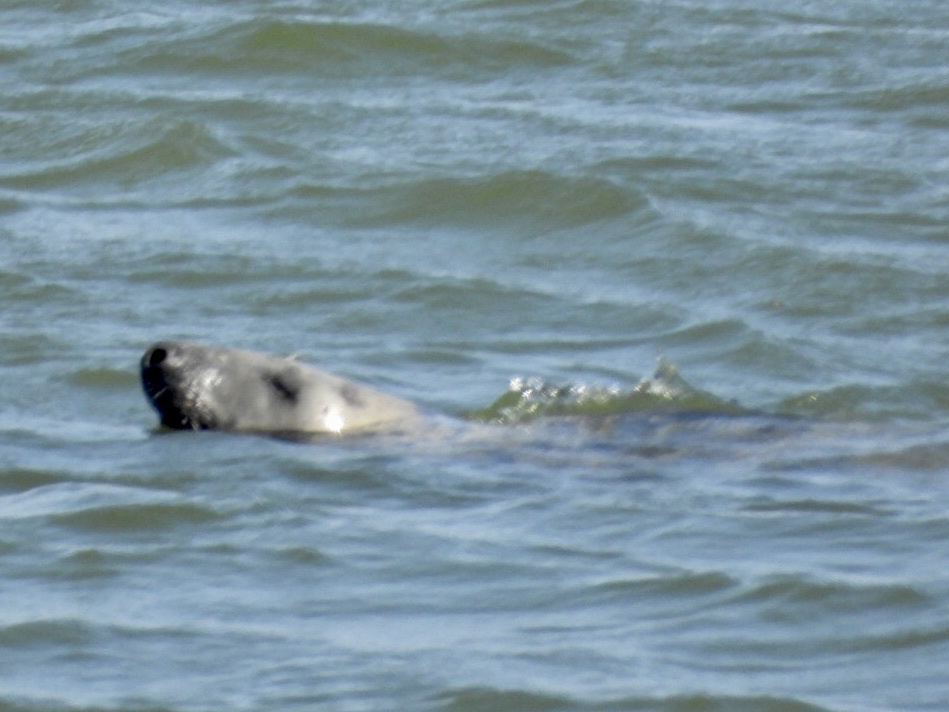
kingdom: Animalia
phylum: Chordata
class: Mammalia
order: Carnivora
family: Phocidae
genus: Halichoerus
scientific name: Halichoerus grypus
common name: Grey seal
